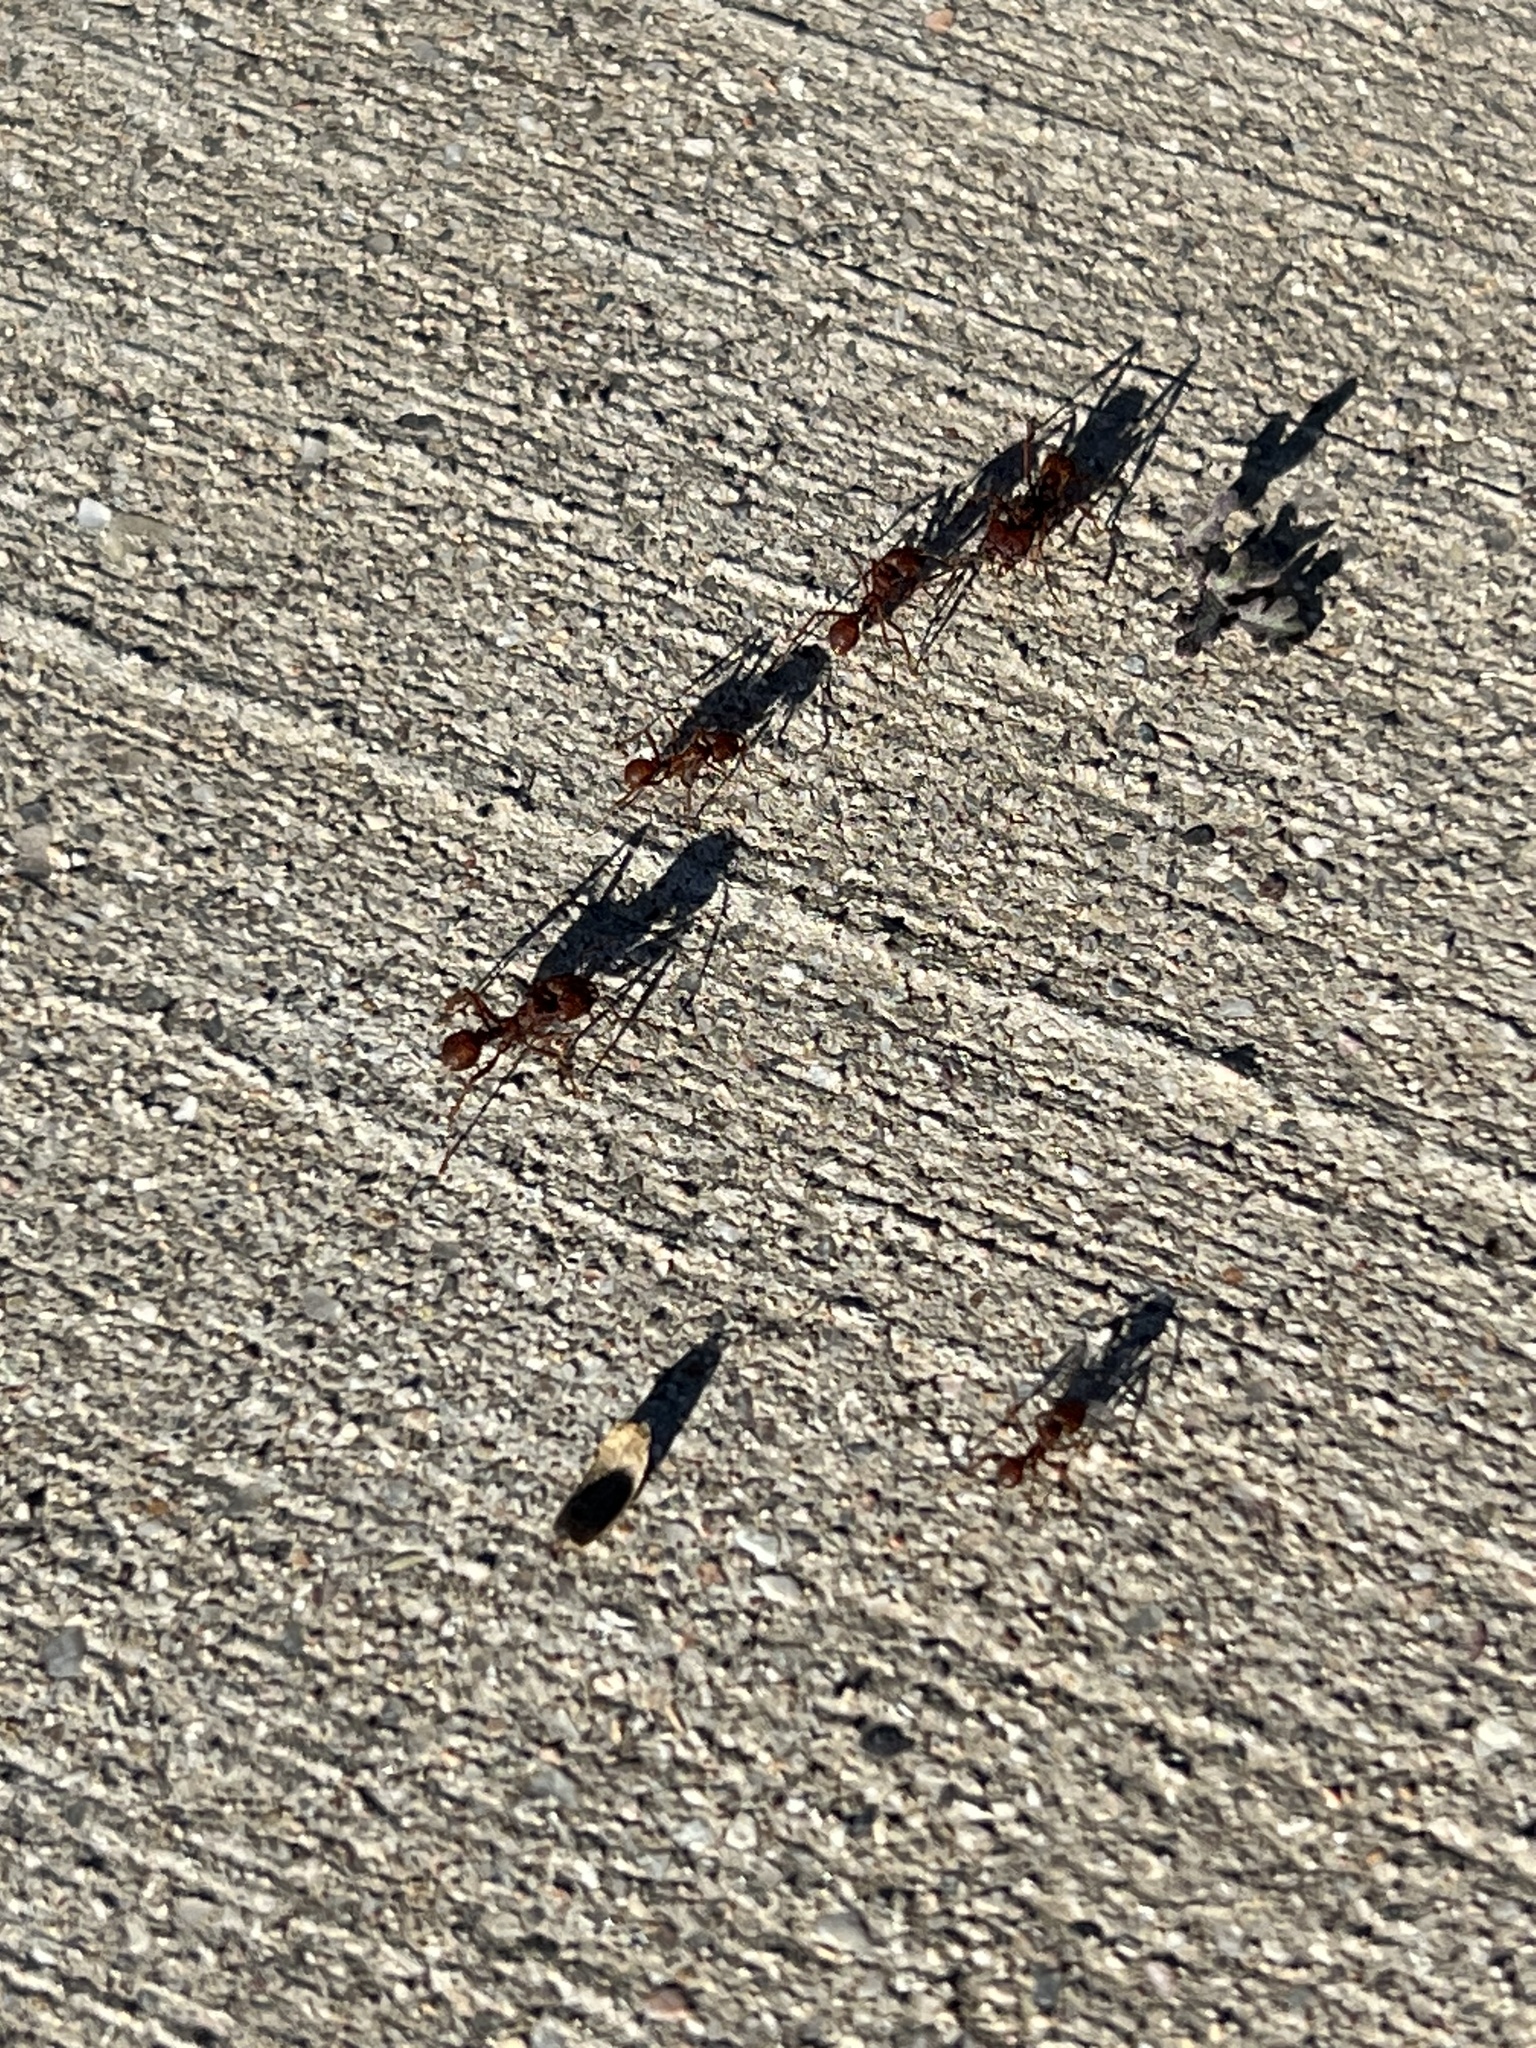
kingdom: Animalia
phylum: Arthropoda
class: Insecta
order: Hymenoptera
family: Formicidae
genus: Acromyrmex
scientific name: Acromyrmex versicolor
